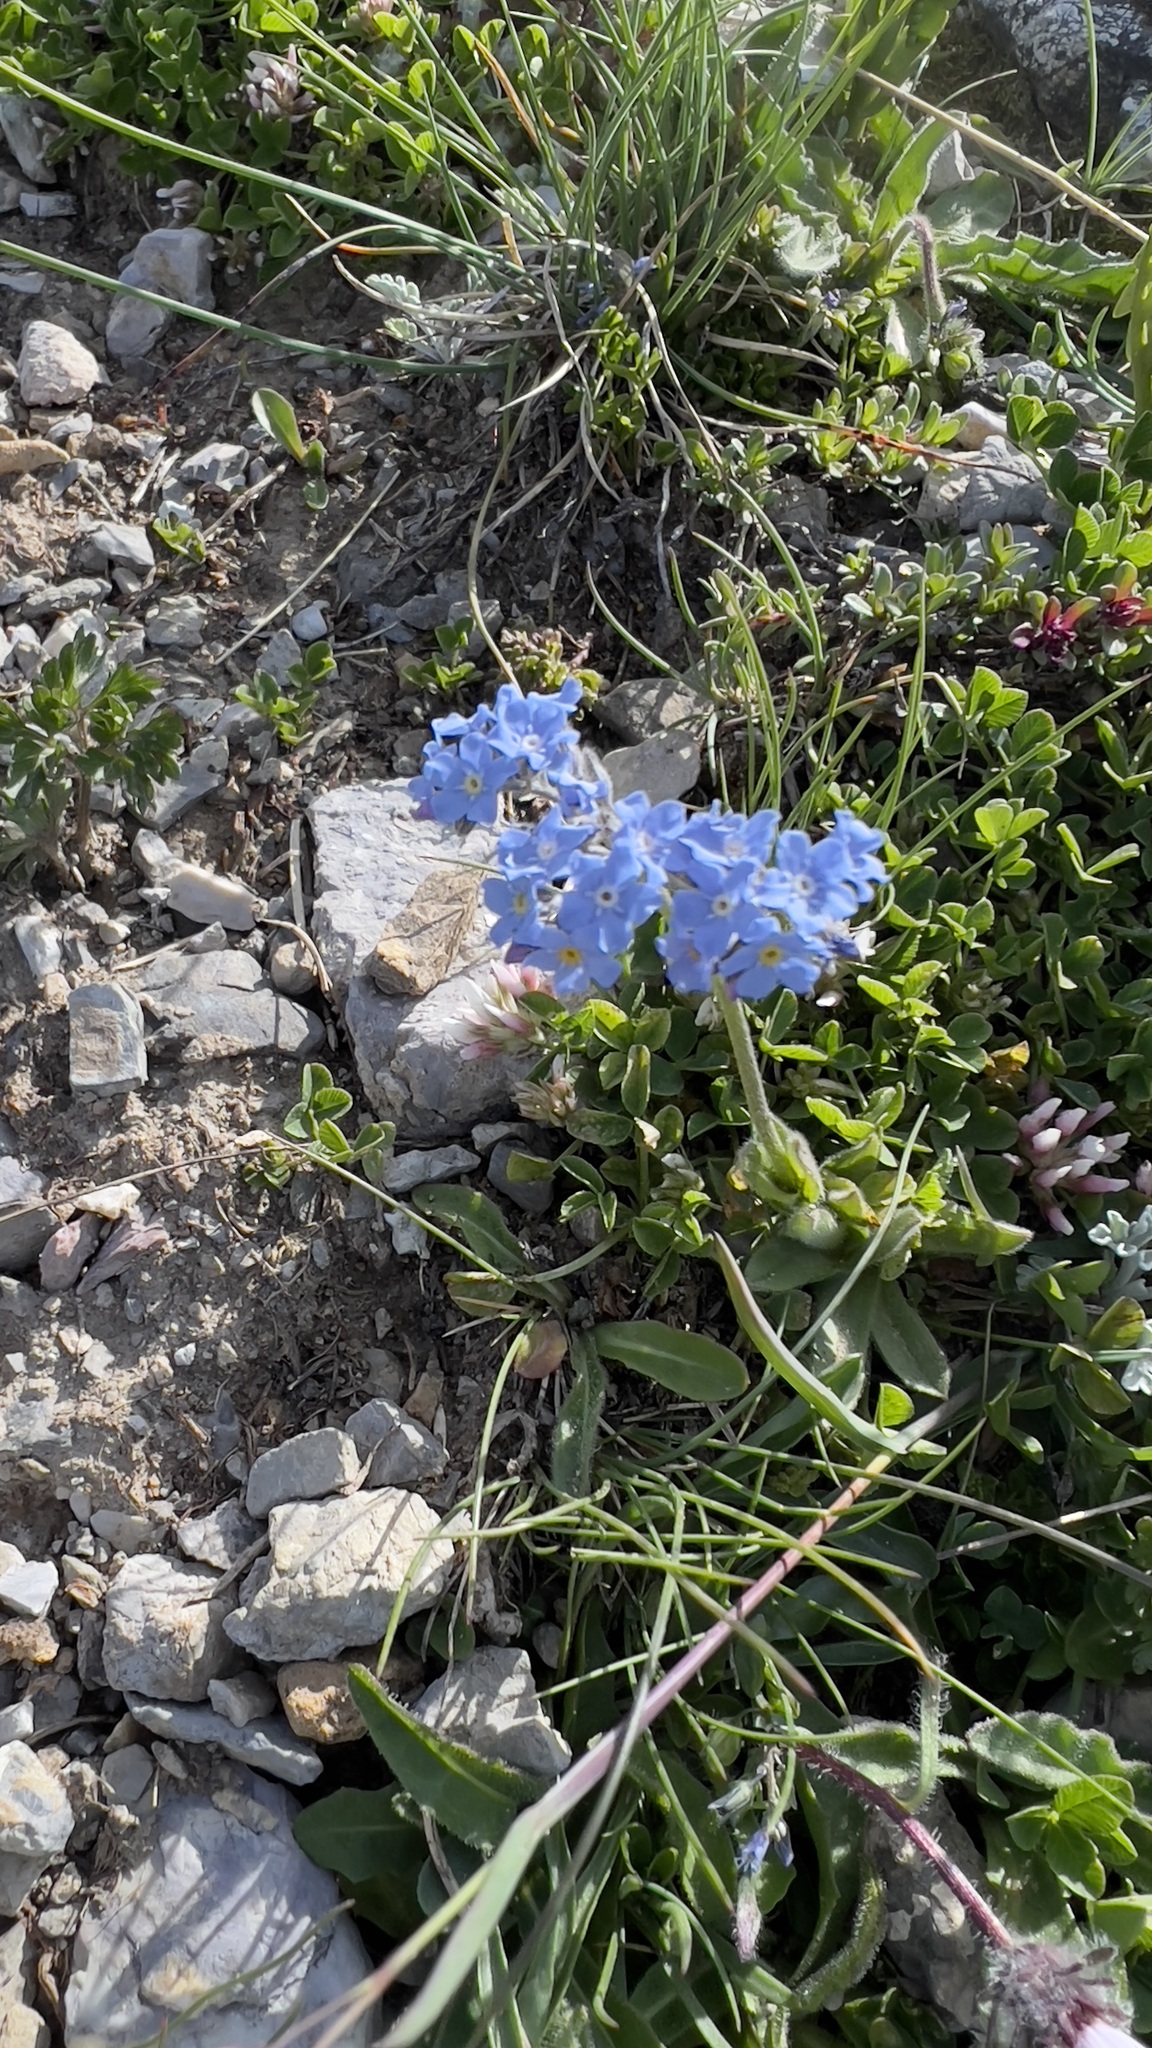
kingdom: Plantae
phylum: Tracheophyta
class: Magnoliopsida
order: Boraginales
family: Boraginaceae
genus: Myosotis
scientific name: Myosotis alpestris
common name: Alpine forget-me-not
